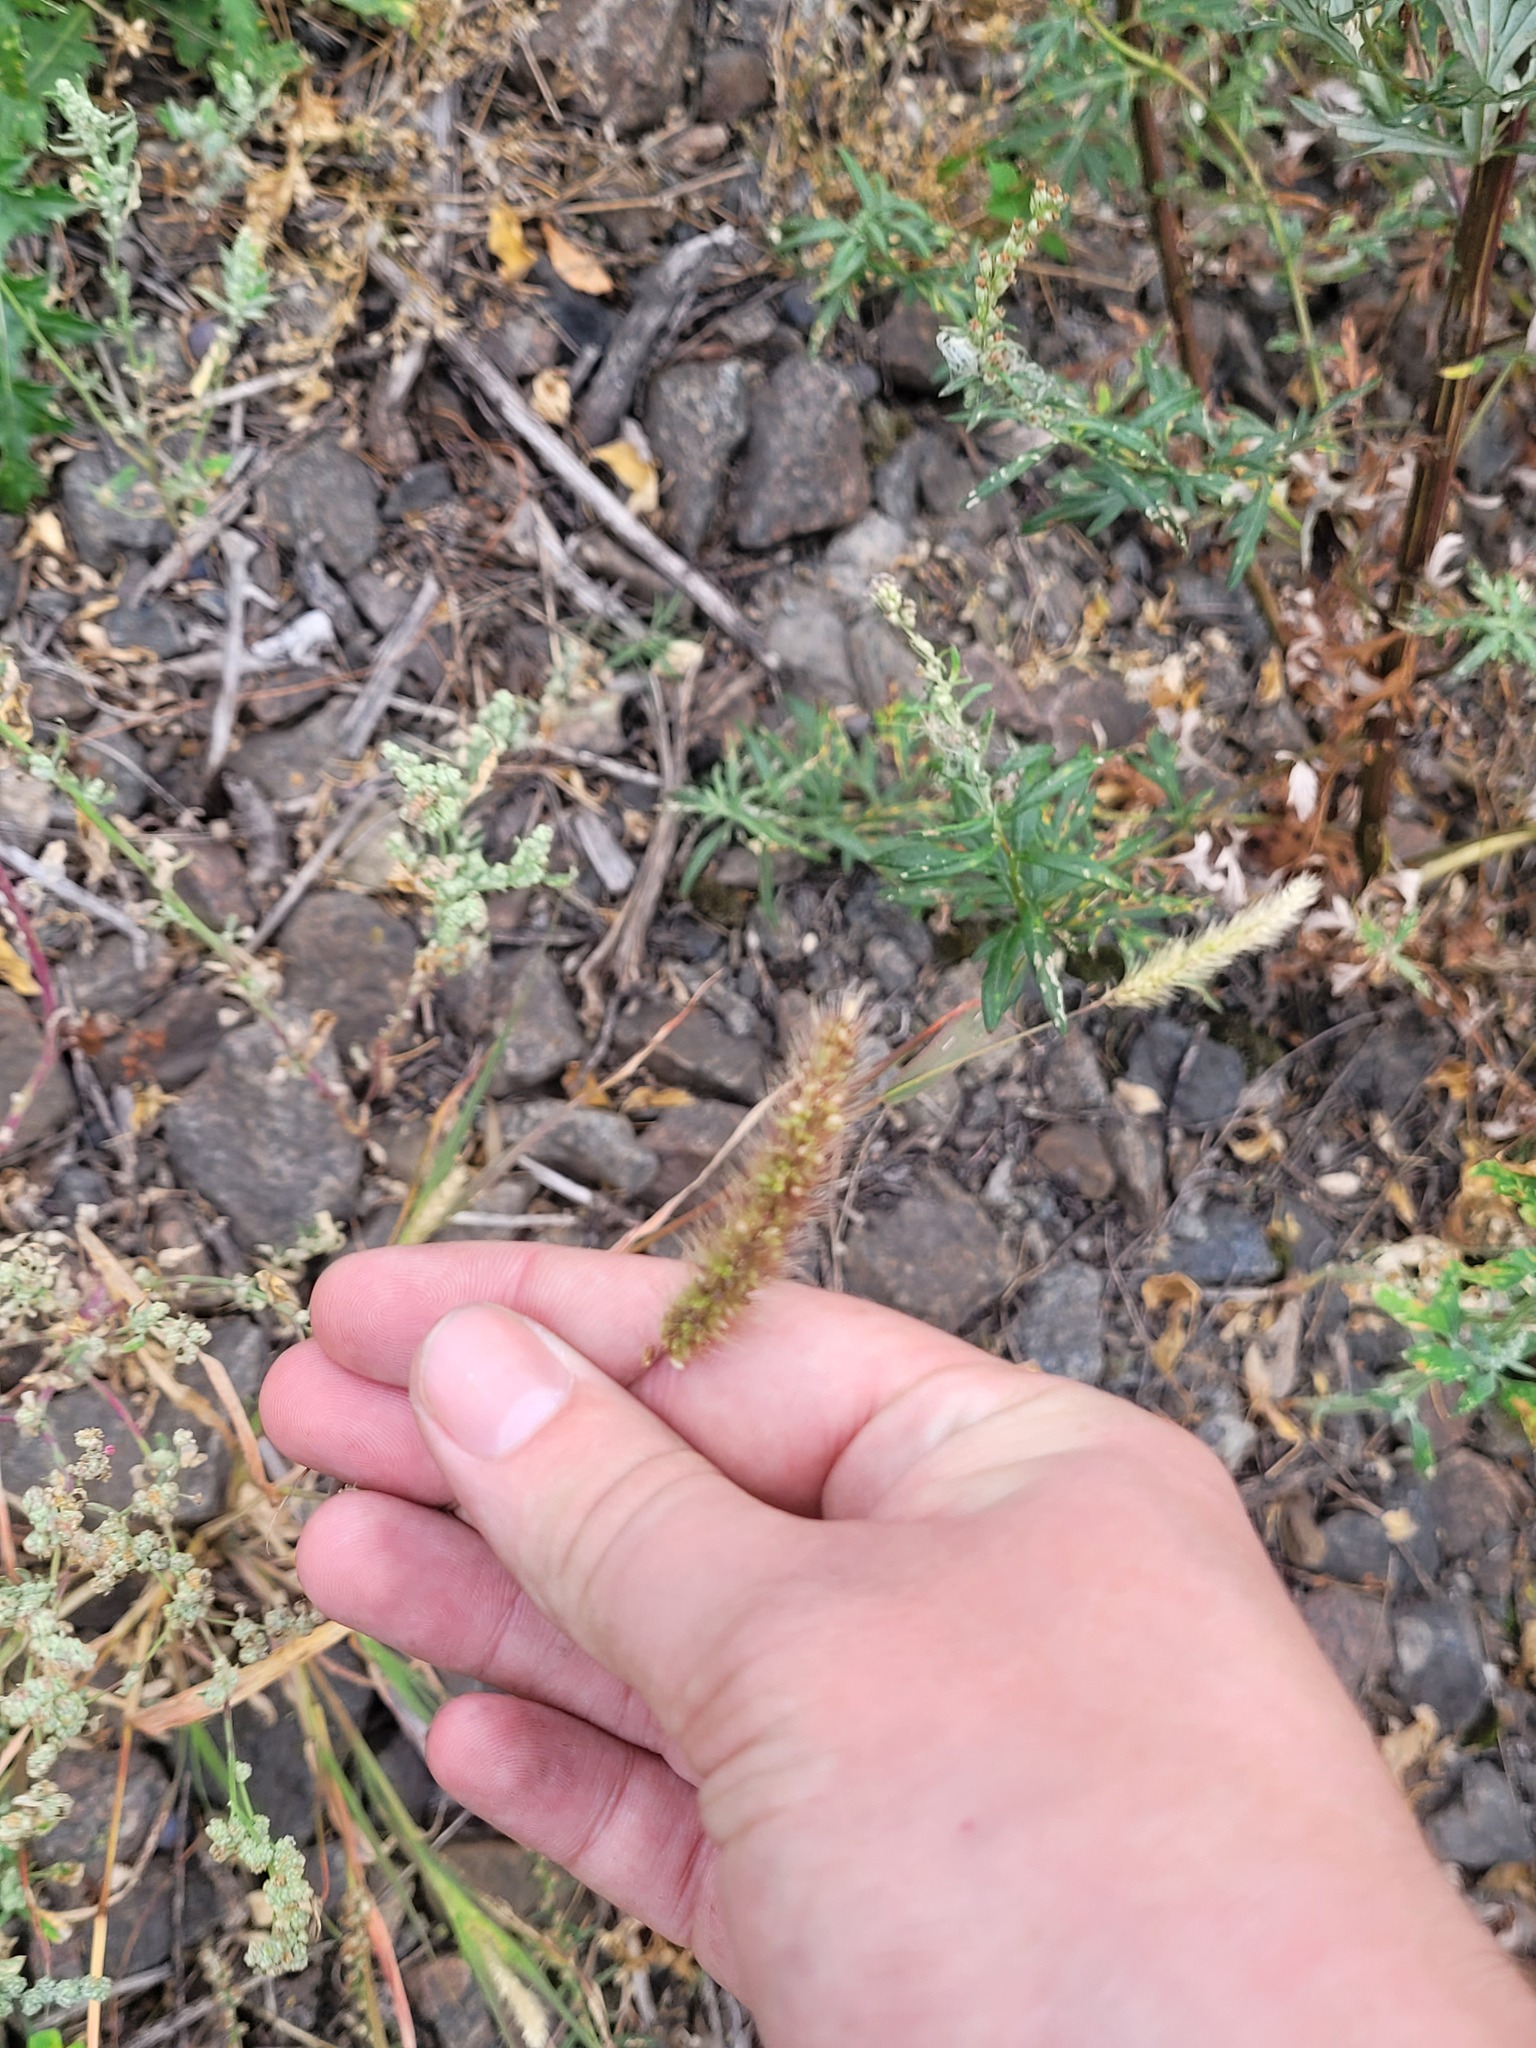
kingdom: Plantae
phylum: Tracheophyta
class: Liliopsida
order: Poales
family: Poaceae
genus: Setaria
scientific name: Setaria viridis
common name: Green bristlegrass
